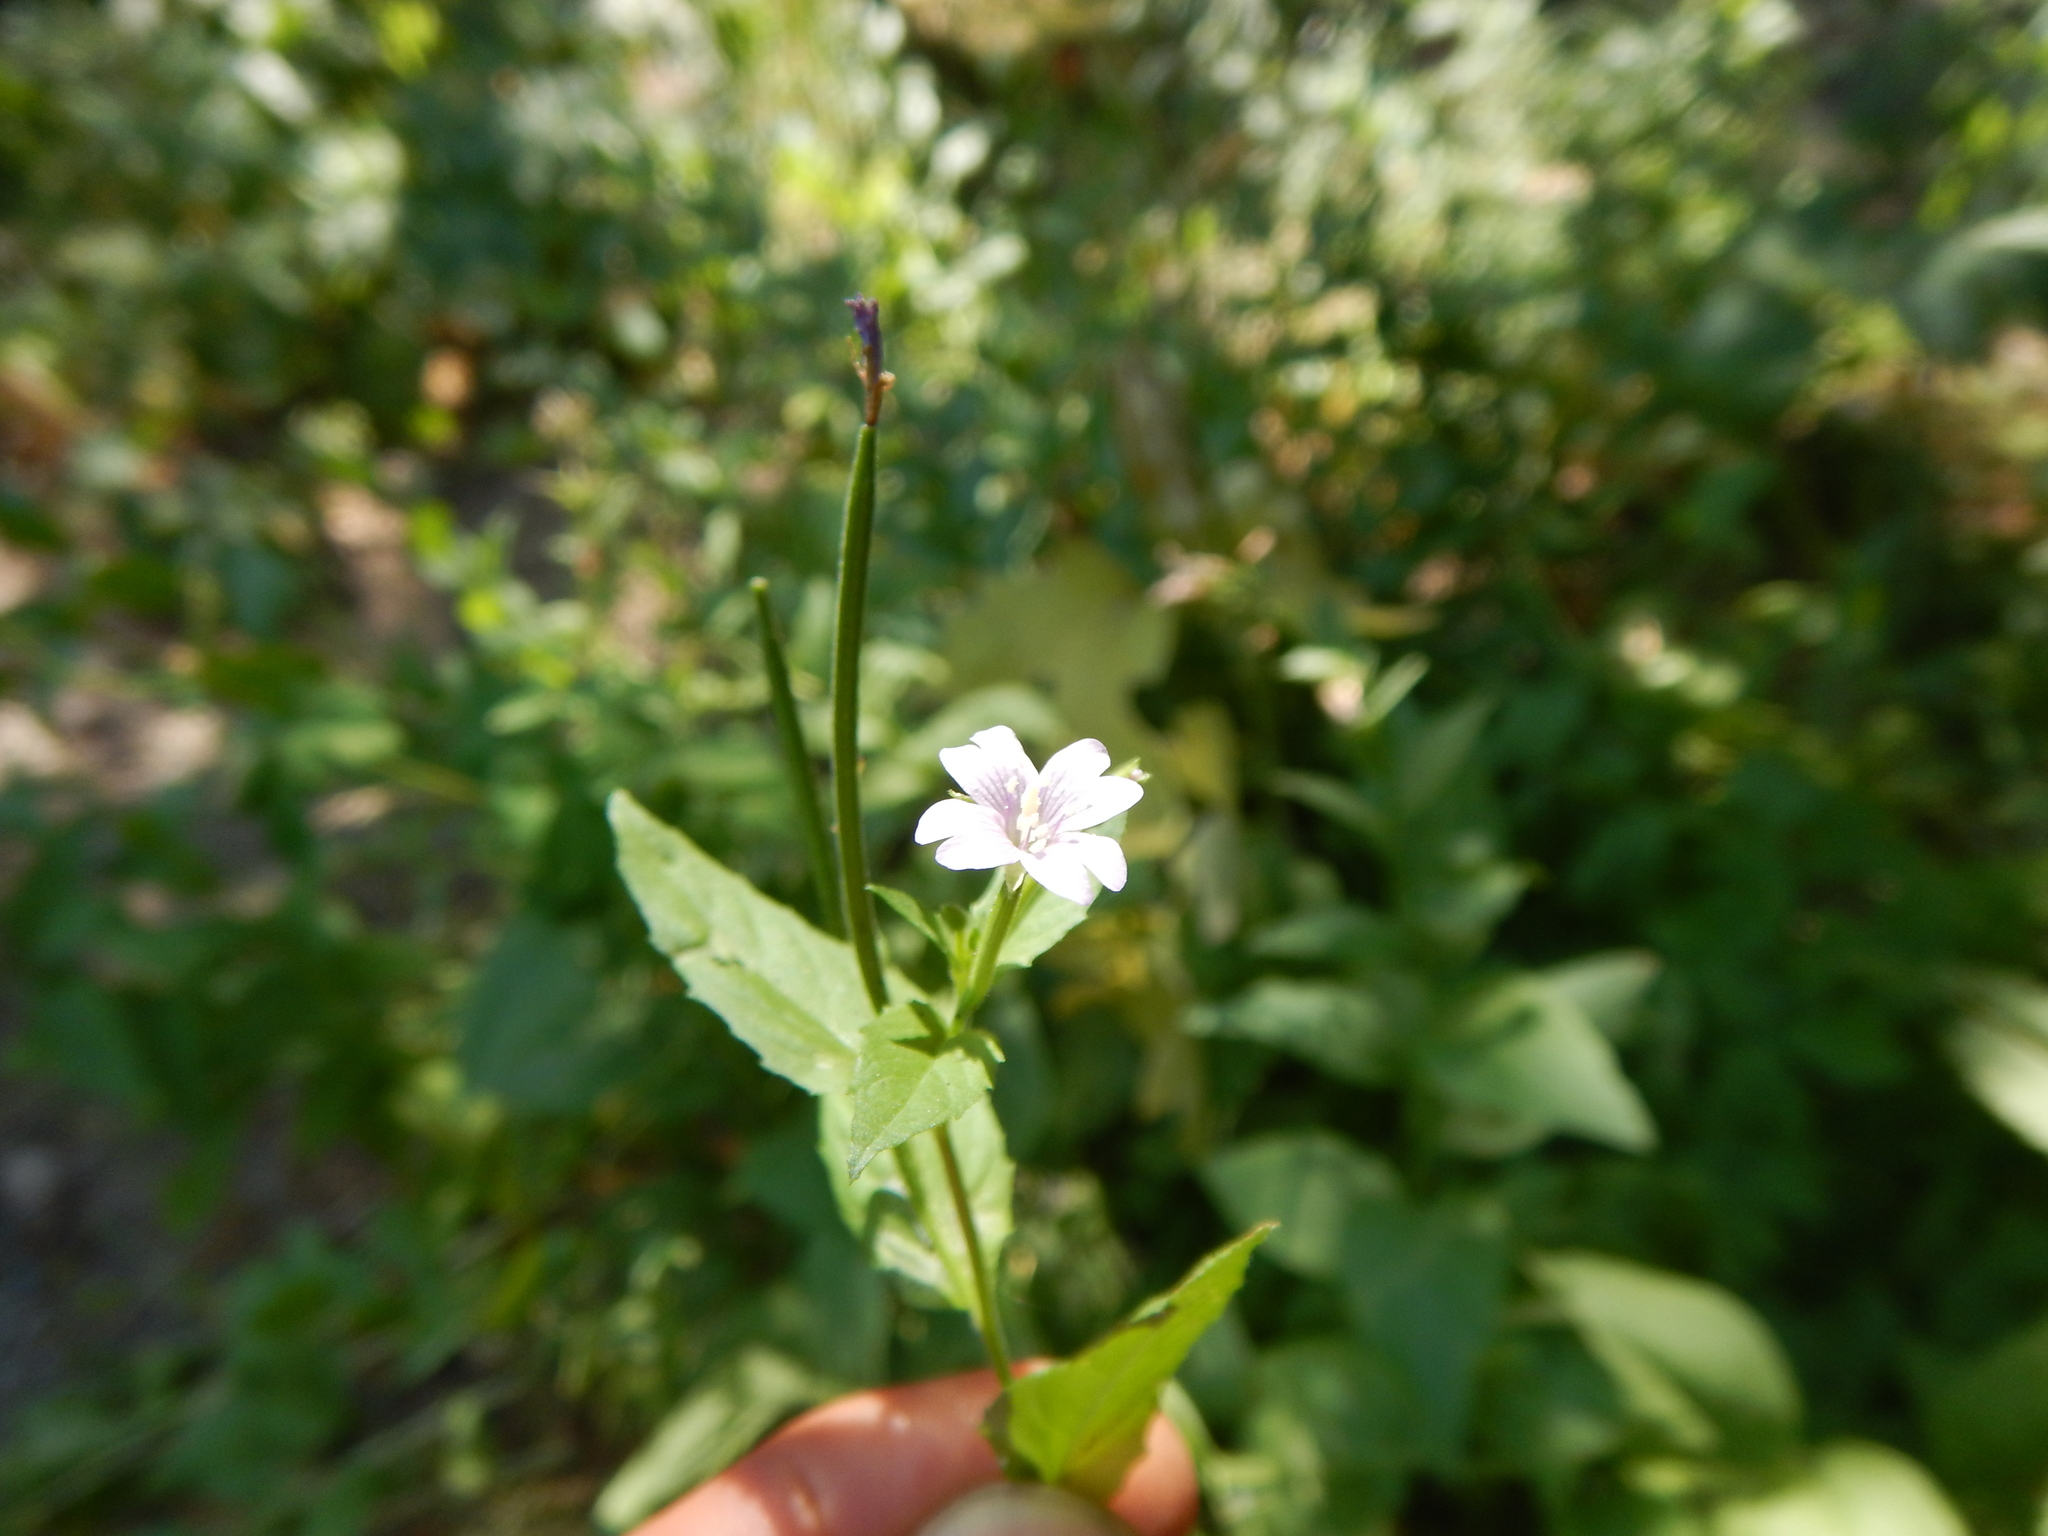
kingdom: Plantae
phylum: Tracheophyta
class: Magnoliopsida
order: Myrtales
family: Onagraceae
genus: Epilobium
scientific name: Epilobium ciliatum
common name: American willowherb
